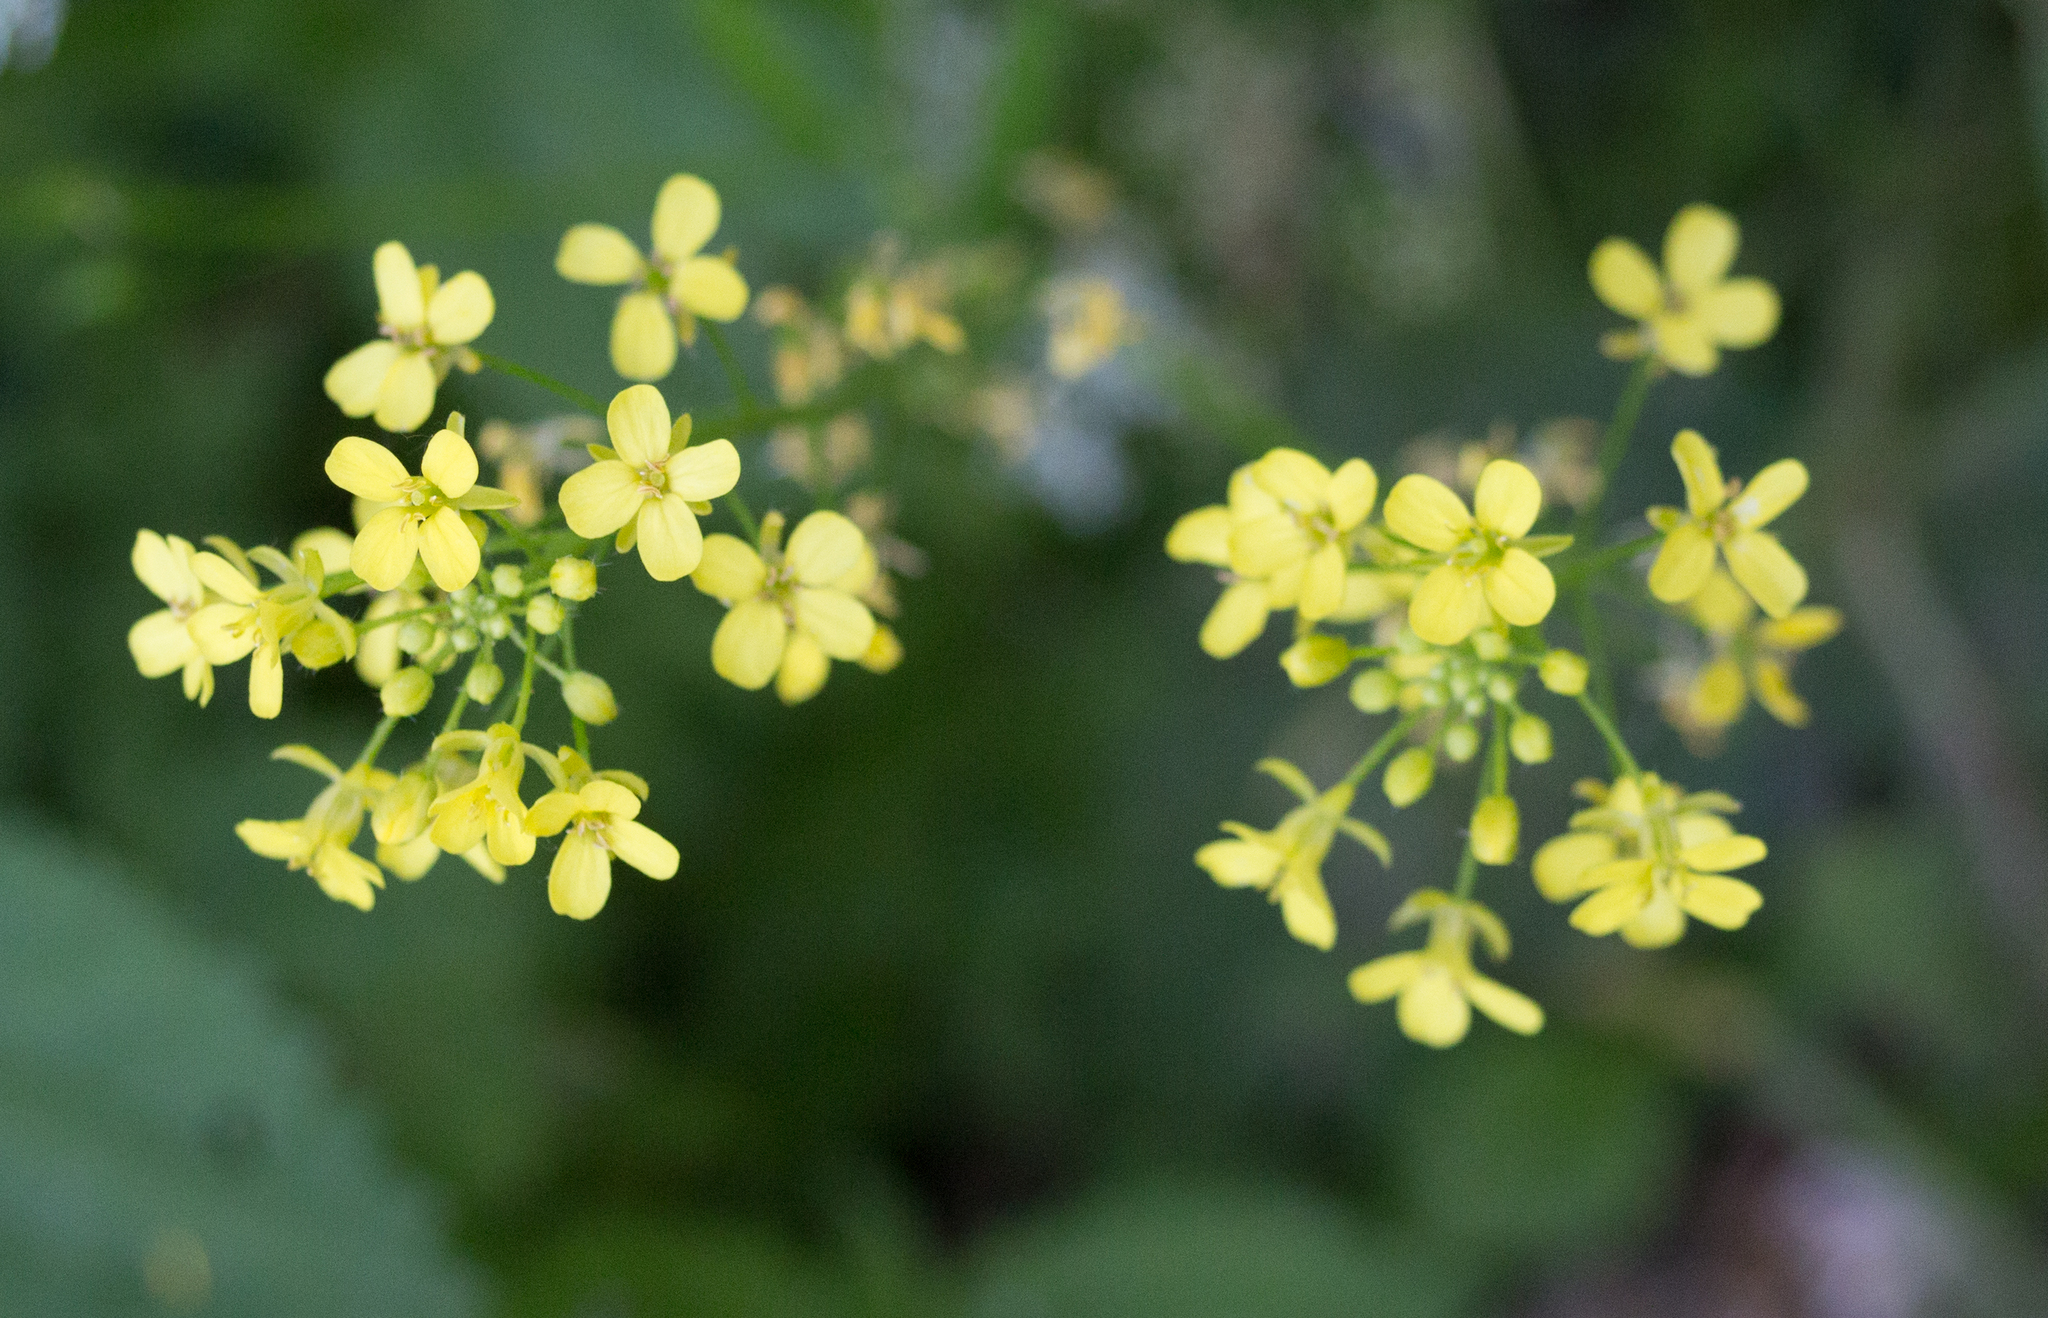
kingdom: Plantae
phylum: Tracheophyta
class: Magnoliopsida
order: Brassicales
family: Brassicaceae
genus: Bunias
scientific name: Bunias orientalis
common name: Warty-cabbage
